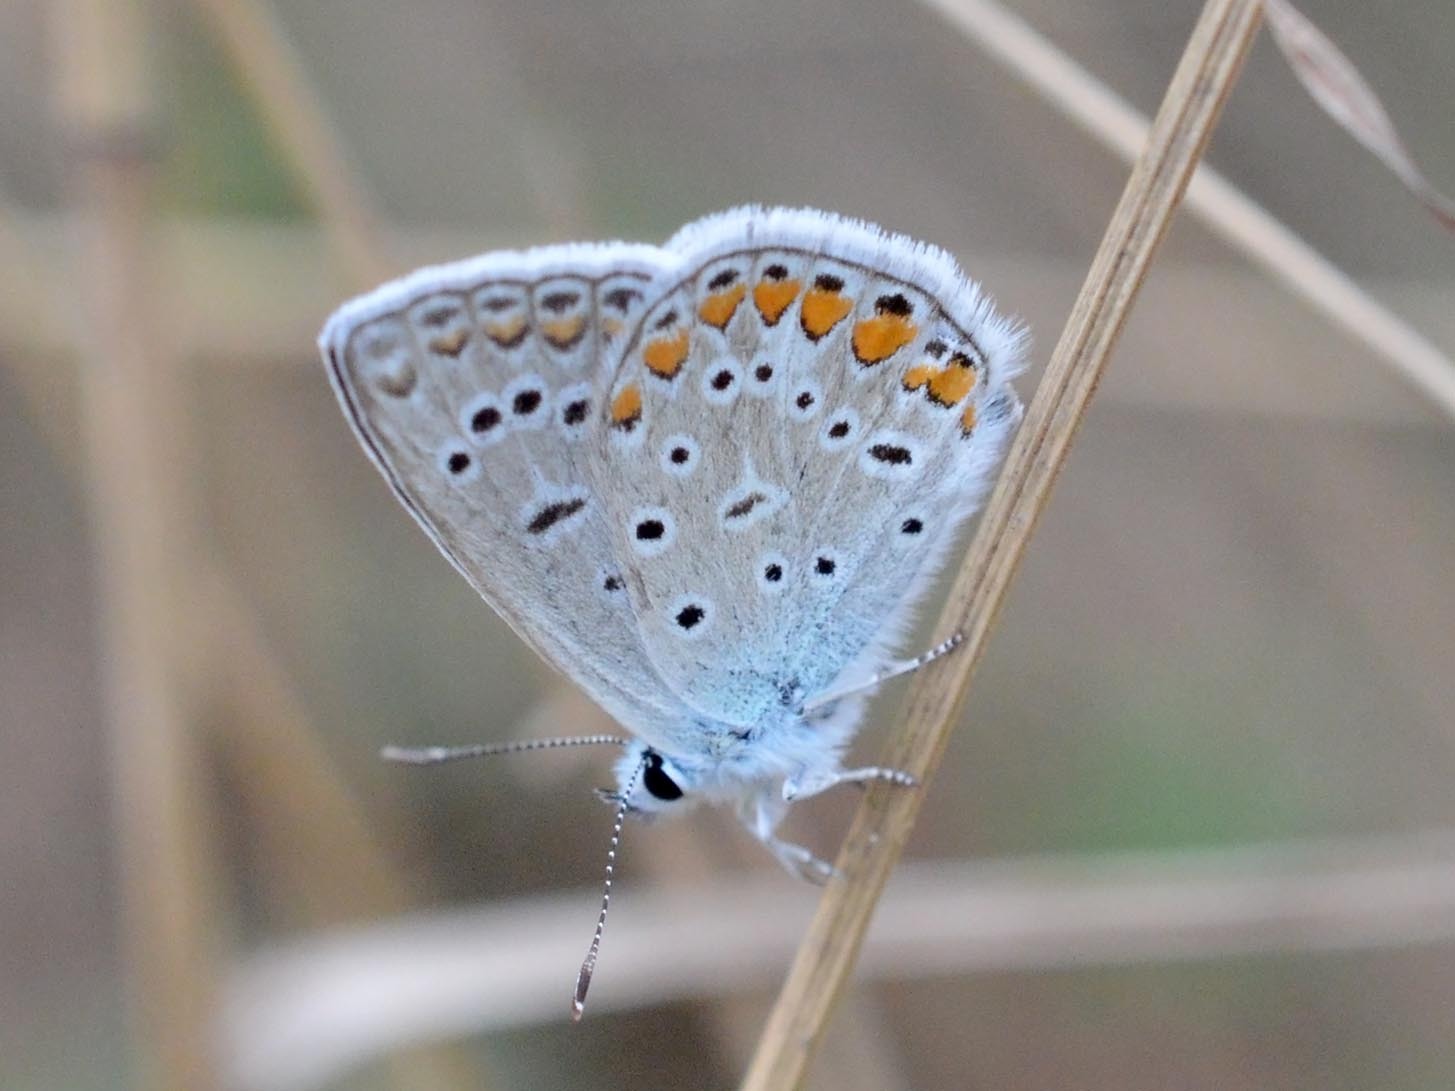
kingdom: Animalia
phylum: Arthropoda
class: Insecta
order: Lepidoptera
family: Lycaenidae
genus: Polyommatus
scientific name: Polyommatus icarus
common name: Common blue
